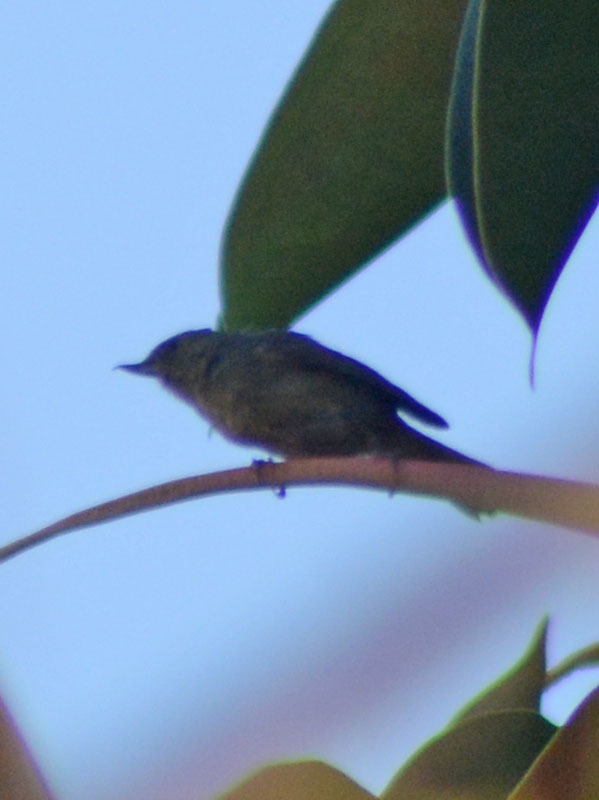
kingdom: Animalia
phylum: Chordata
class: Aves
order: Passeriformes
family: Thraupidae
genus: Diglossa
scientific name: Diglossa baritula
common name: Cinnamon-bellied flowerpiercer
